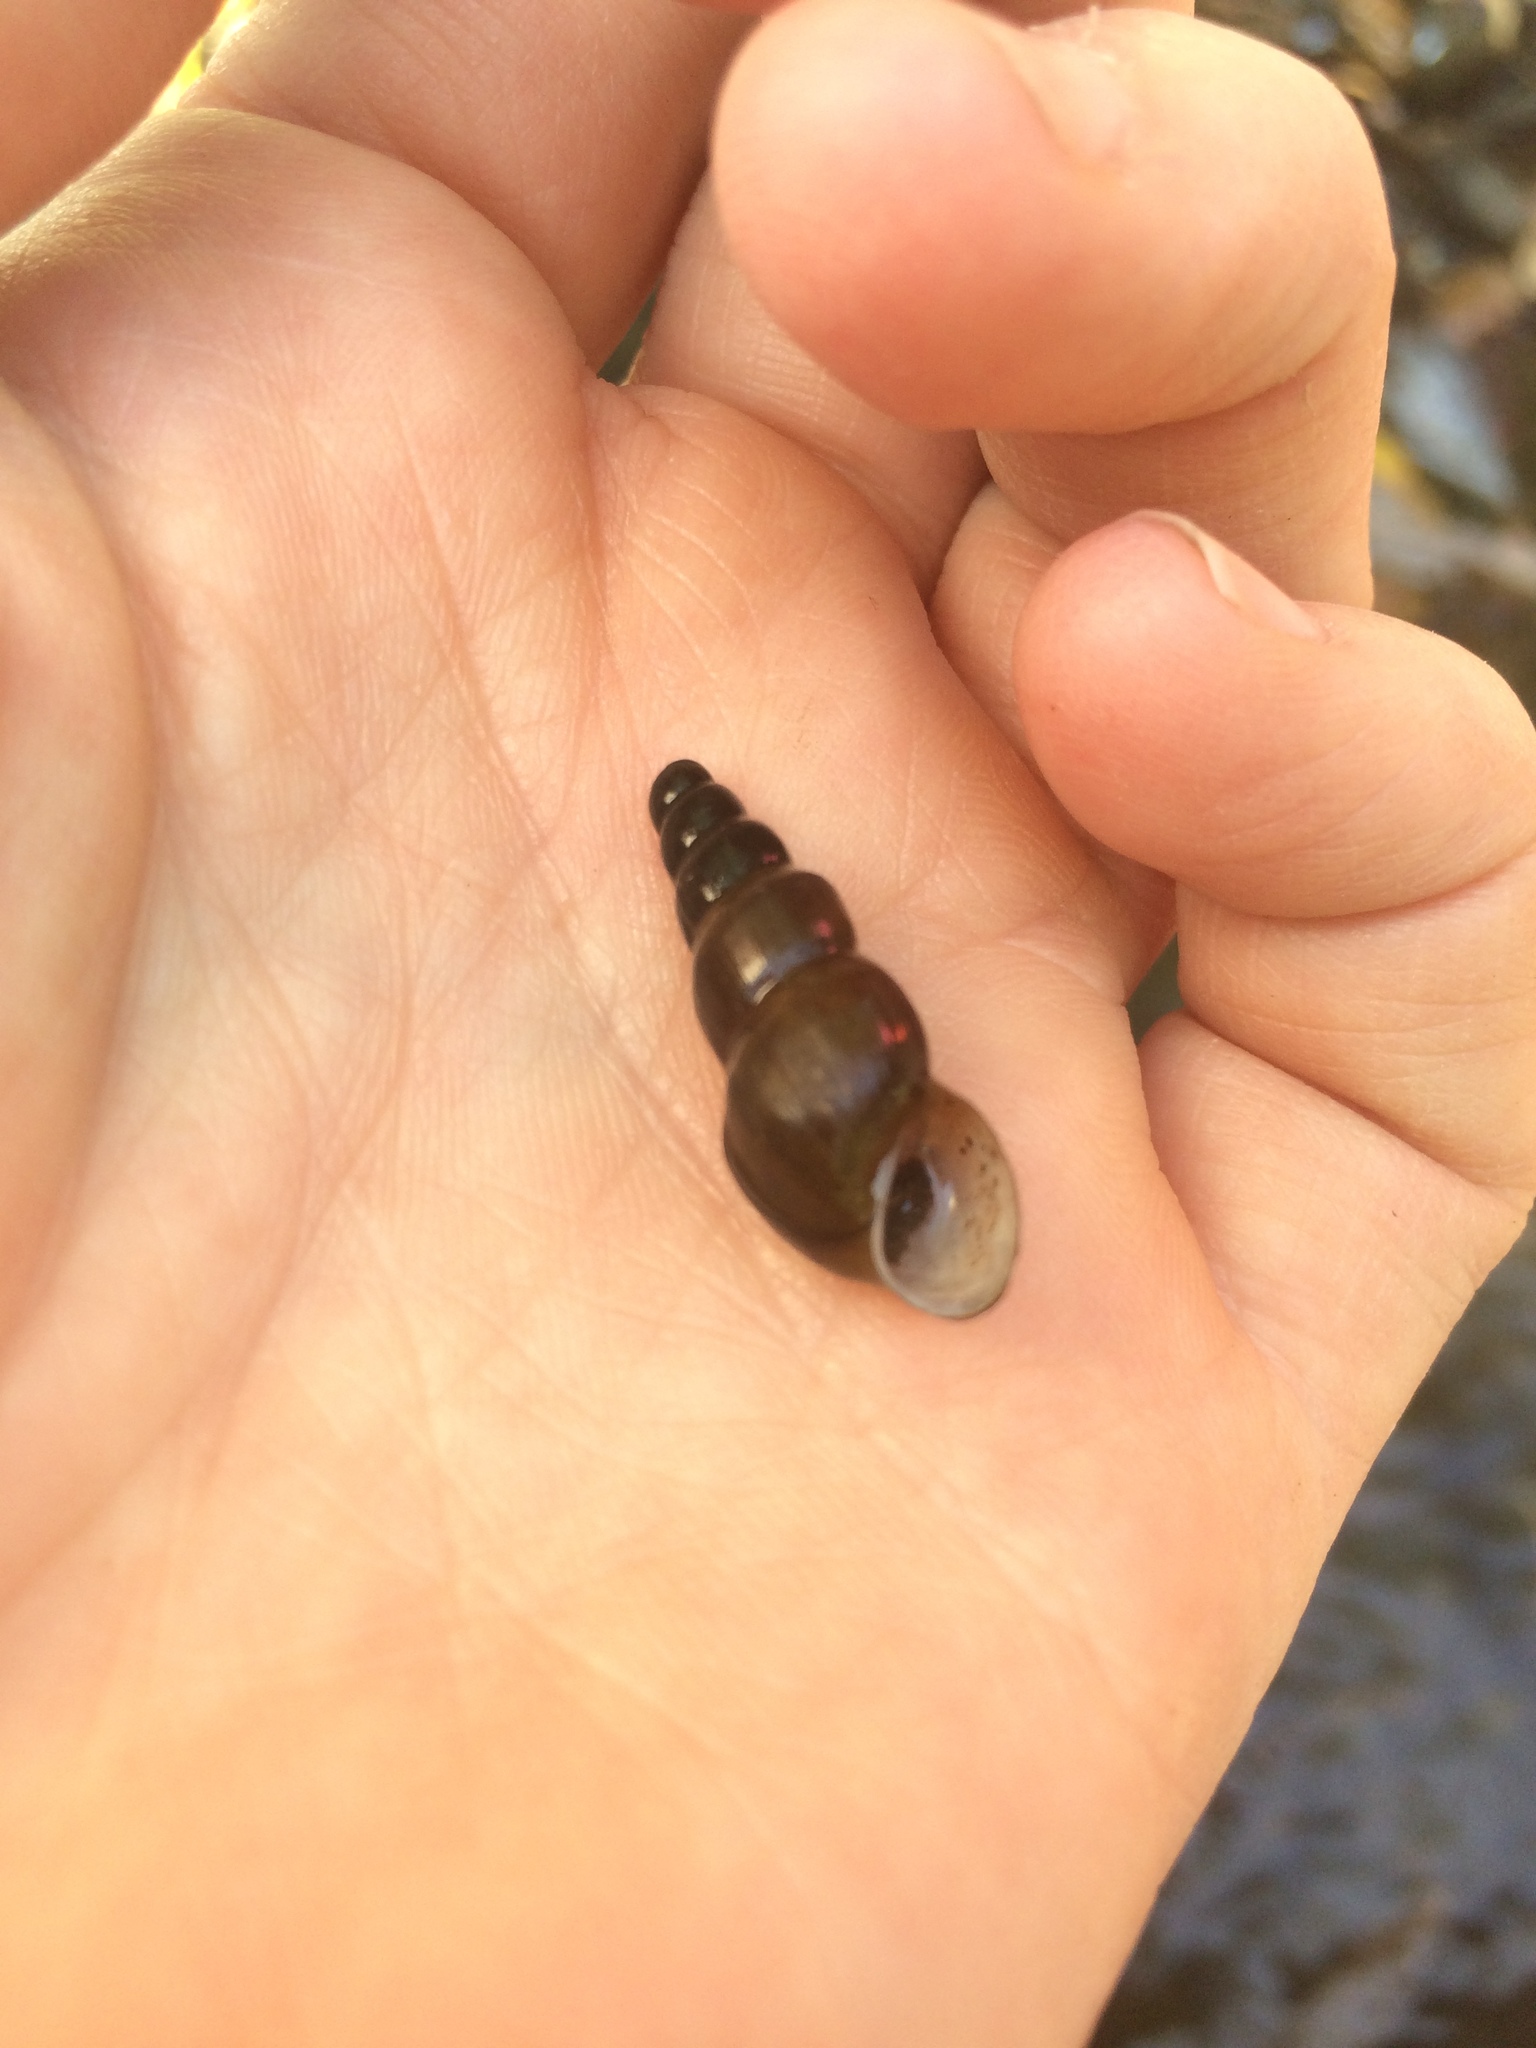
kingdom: Animalia
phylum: Mollusca
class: Gastropoda
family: Semisulcospiridae
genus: Juga
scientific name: Juga nigrina
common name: Black juga
